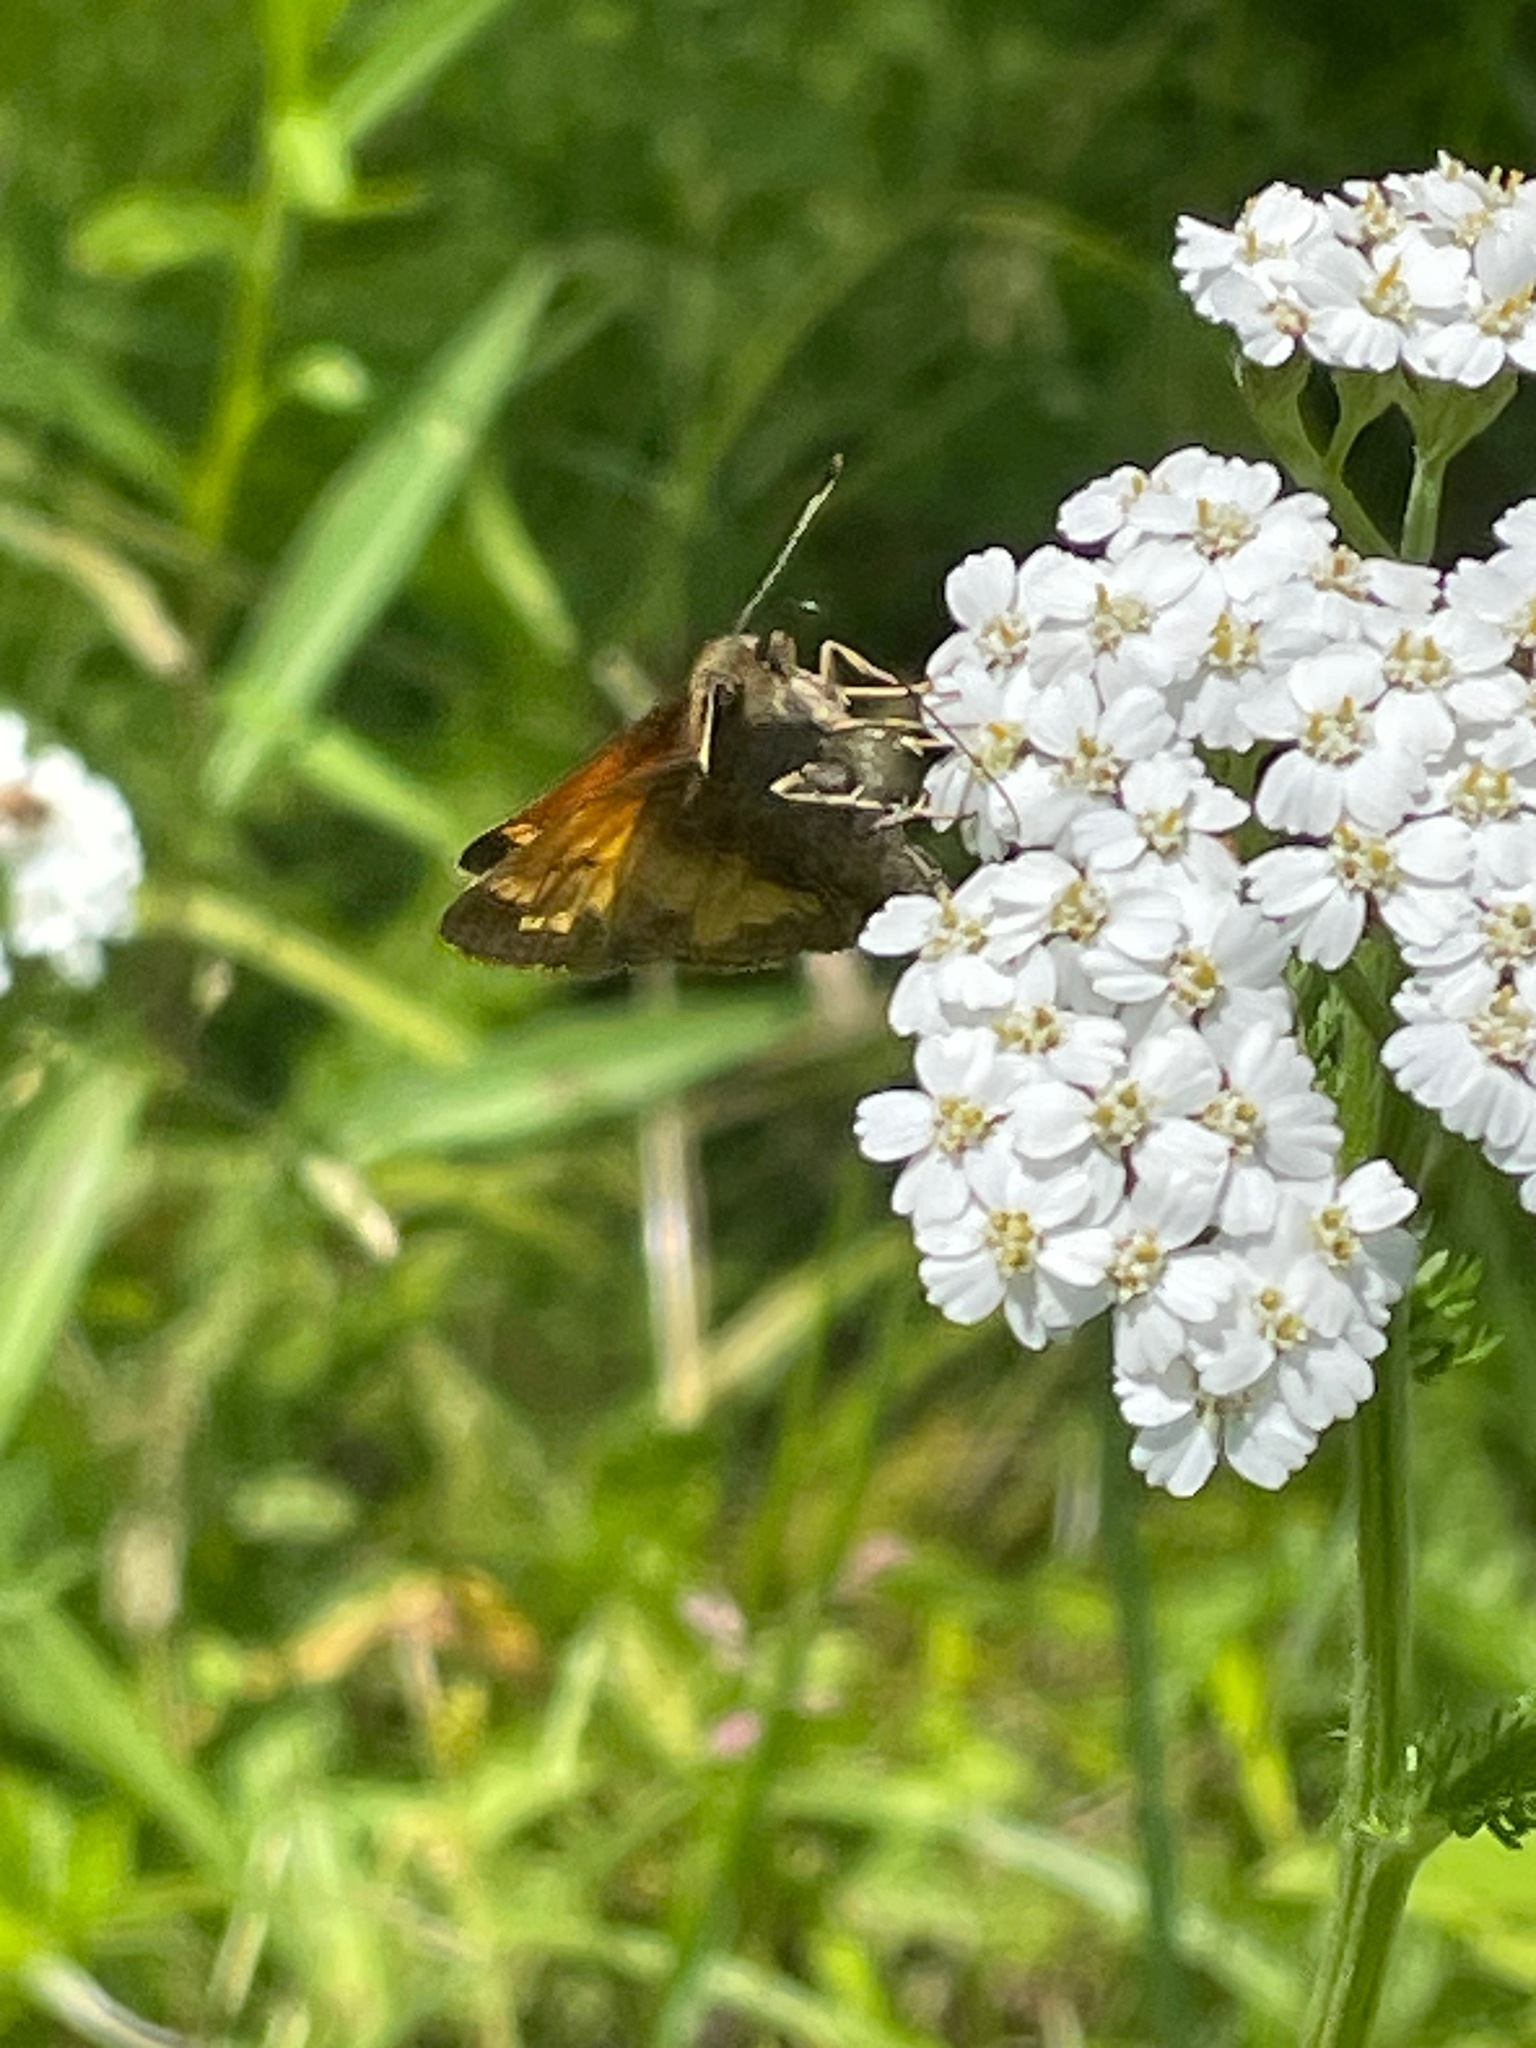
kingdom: Animalia
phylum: Arthropoda
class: Insecta
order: Lepidoptera
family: Hesperiidae
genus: Lon
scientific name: Lon hobomok
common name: Hobomok skipper
